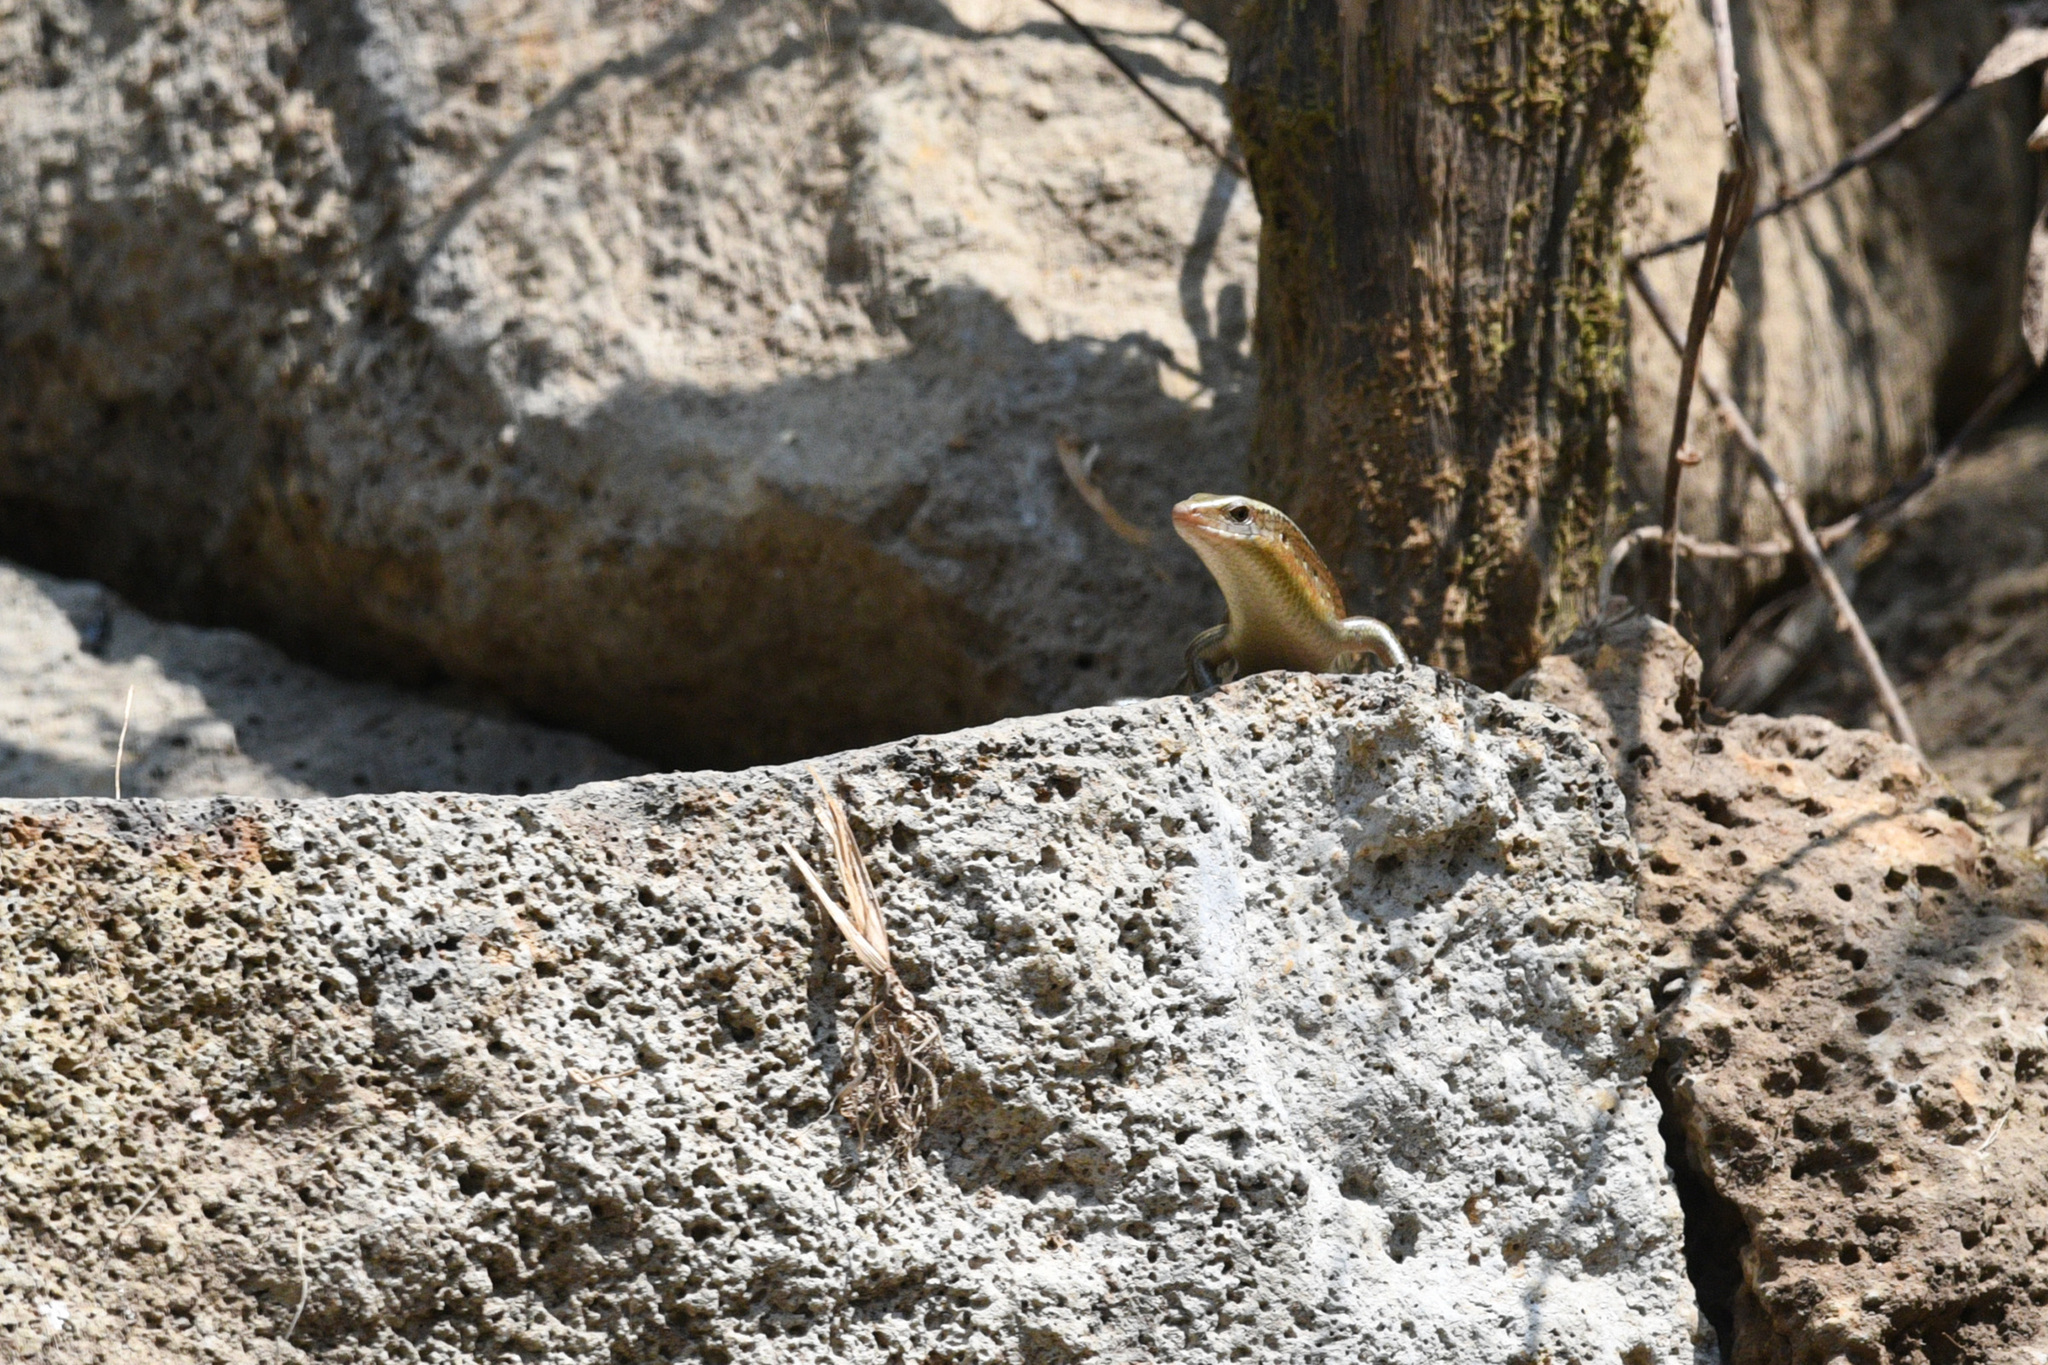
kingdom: Animalia
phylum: Chordata
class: Squamata
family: Scincidae
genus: Eutropis
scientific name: Eutropis multifasciata
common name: Common mabuya
